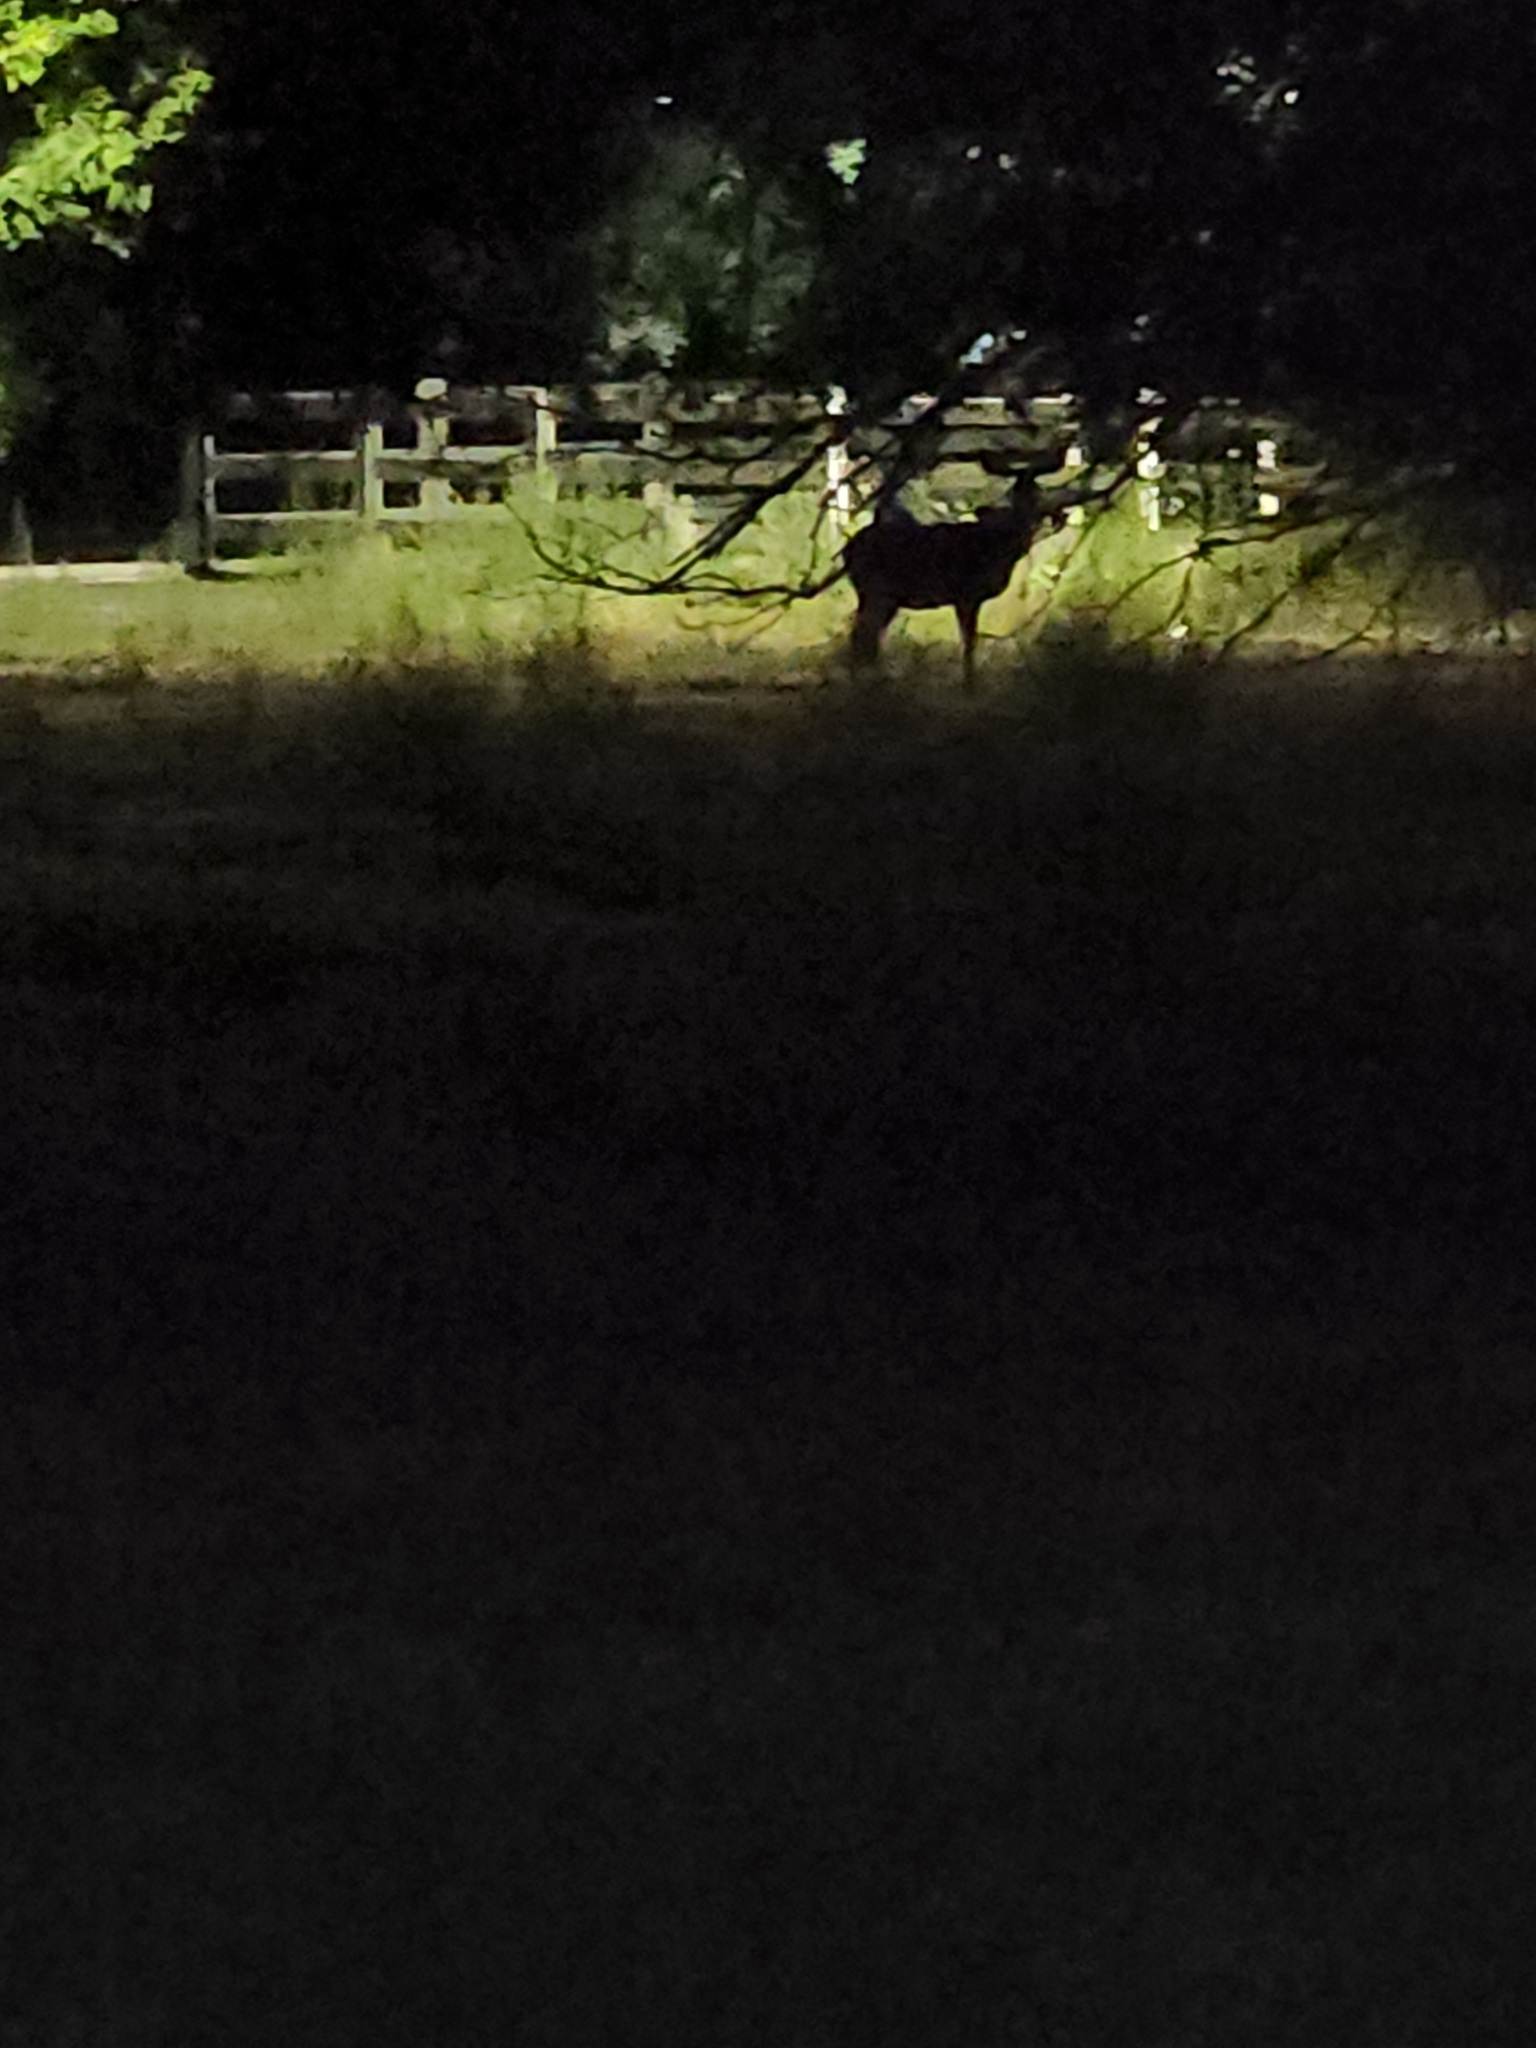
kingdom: Animalia
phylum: Chordata
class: Mammalia
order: Artiodactyla
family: Cervidae
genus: Odocoileus
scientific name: Odocoileus hemionus
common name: Mule deer
